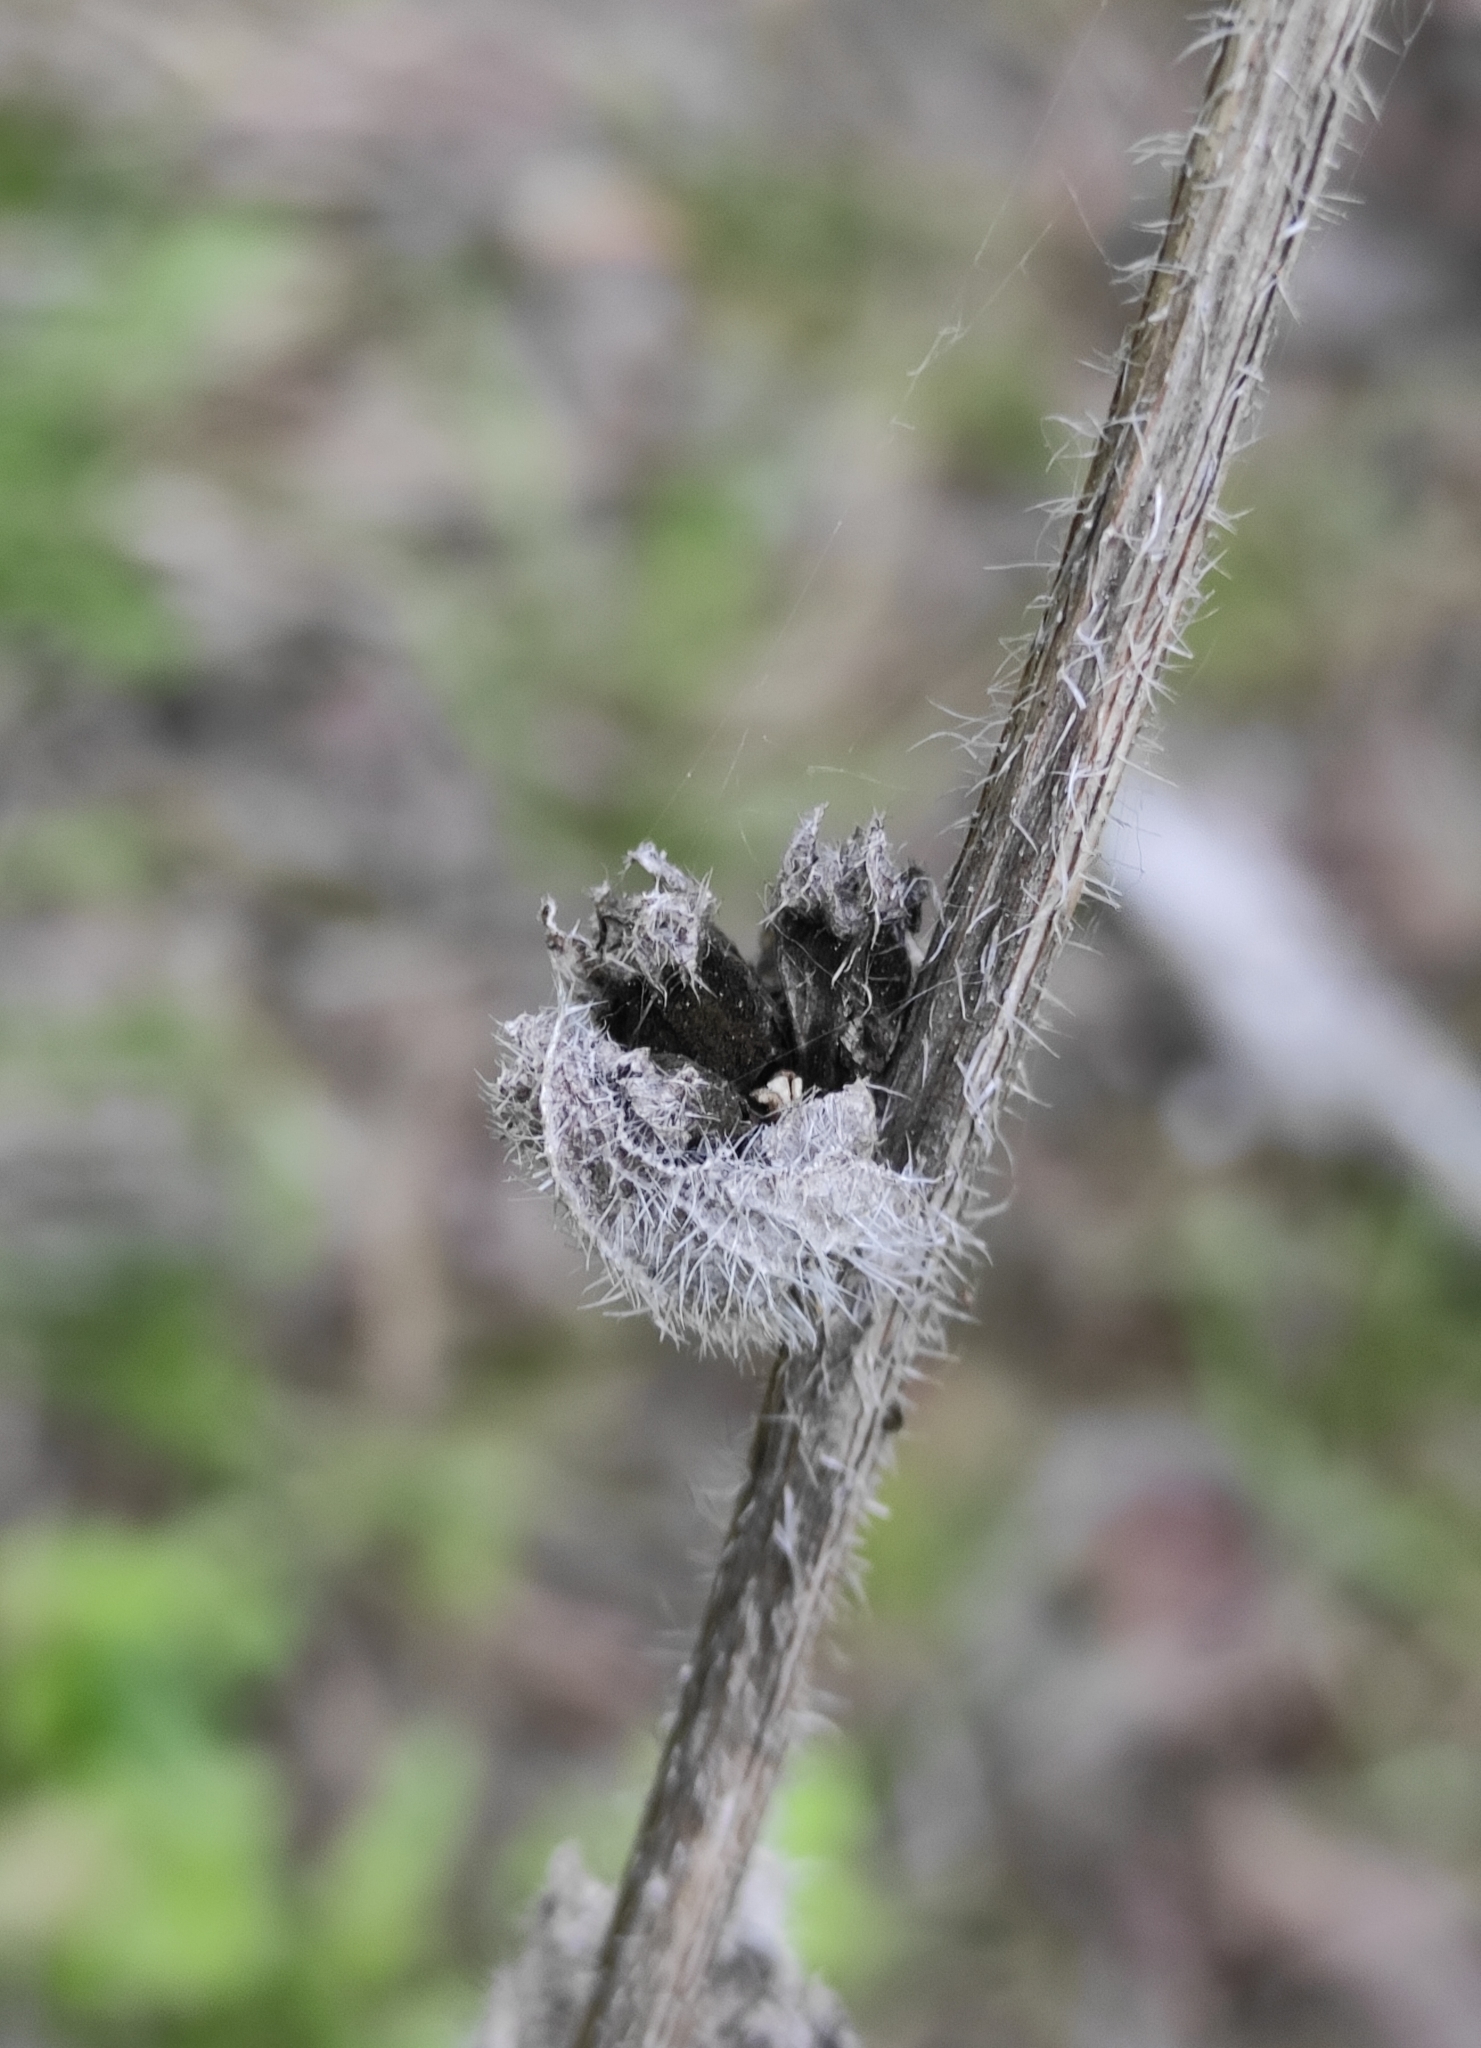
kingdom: Plantae
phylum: Tracheophyta
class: Magnoliopsida
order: Asterales
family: Campanulaceae
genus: Campanula
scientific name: Campanula cervicaria
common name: Bristly bellflower
